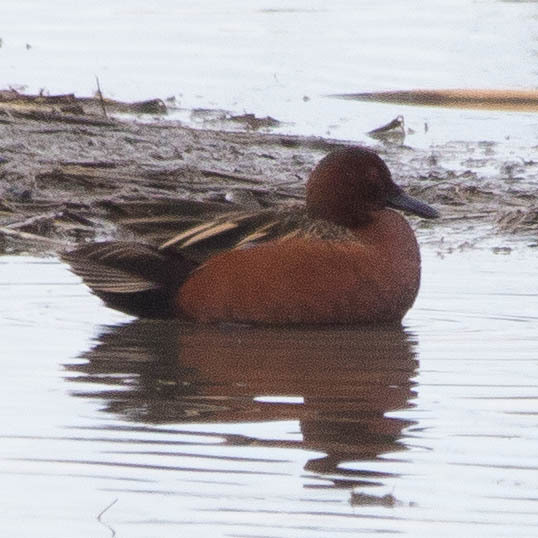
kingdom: Animalia
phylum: Chordata
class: Aves
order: Anseriformes
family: Anatidae
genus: Spatula
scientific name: Spatula cyanoptera
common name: Cinnamon teal
